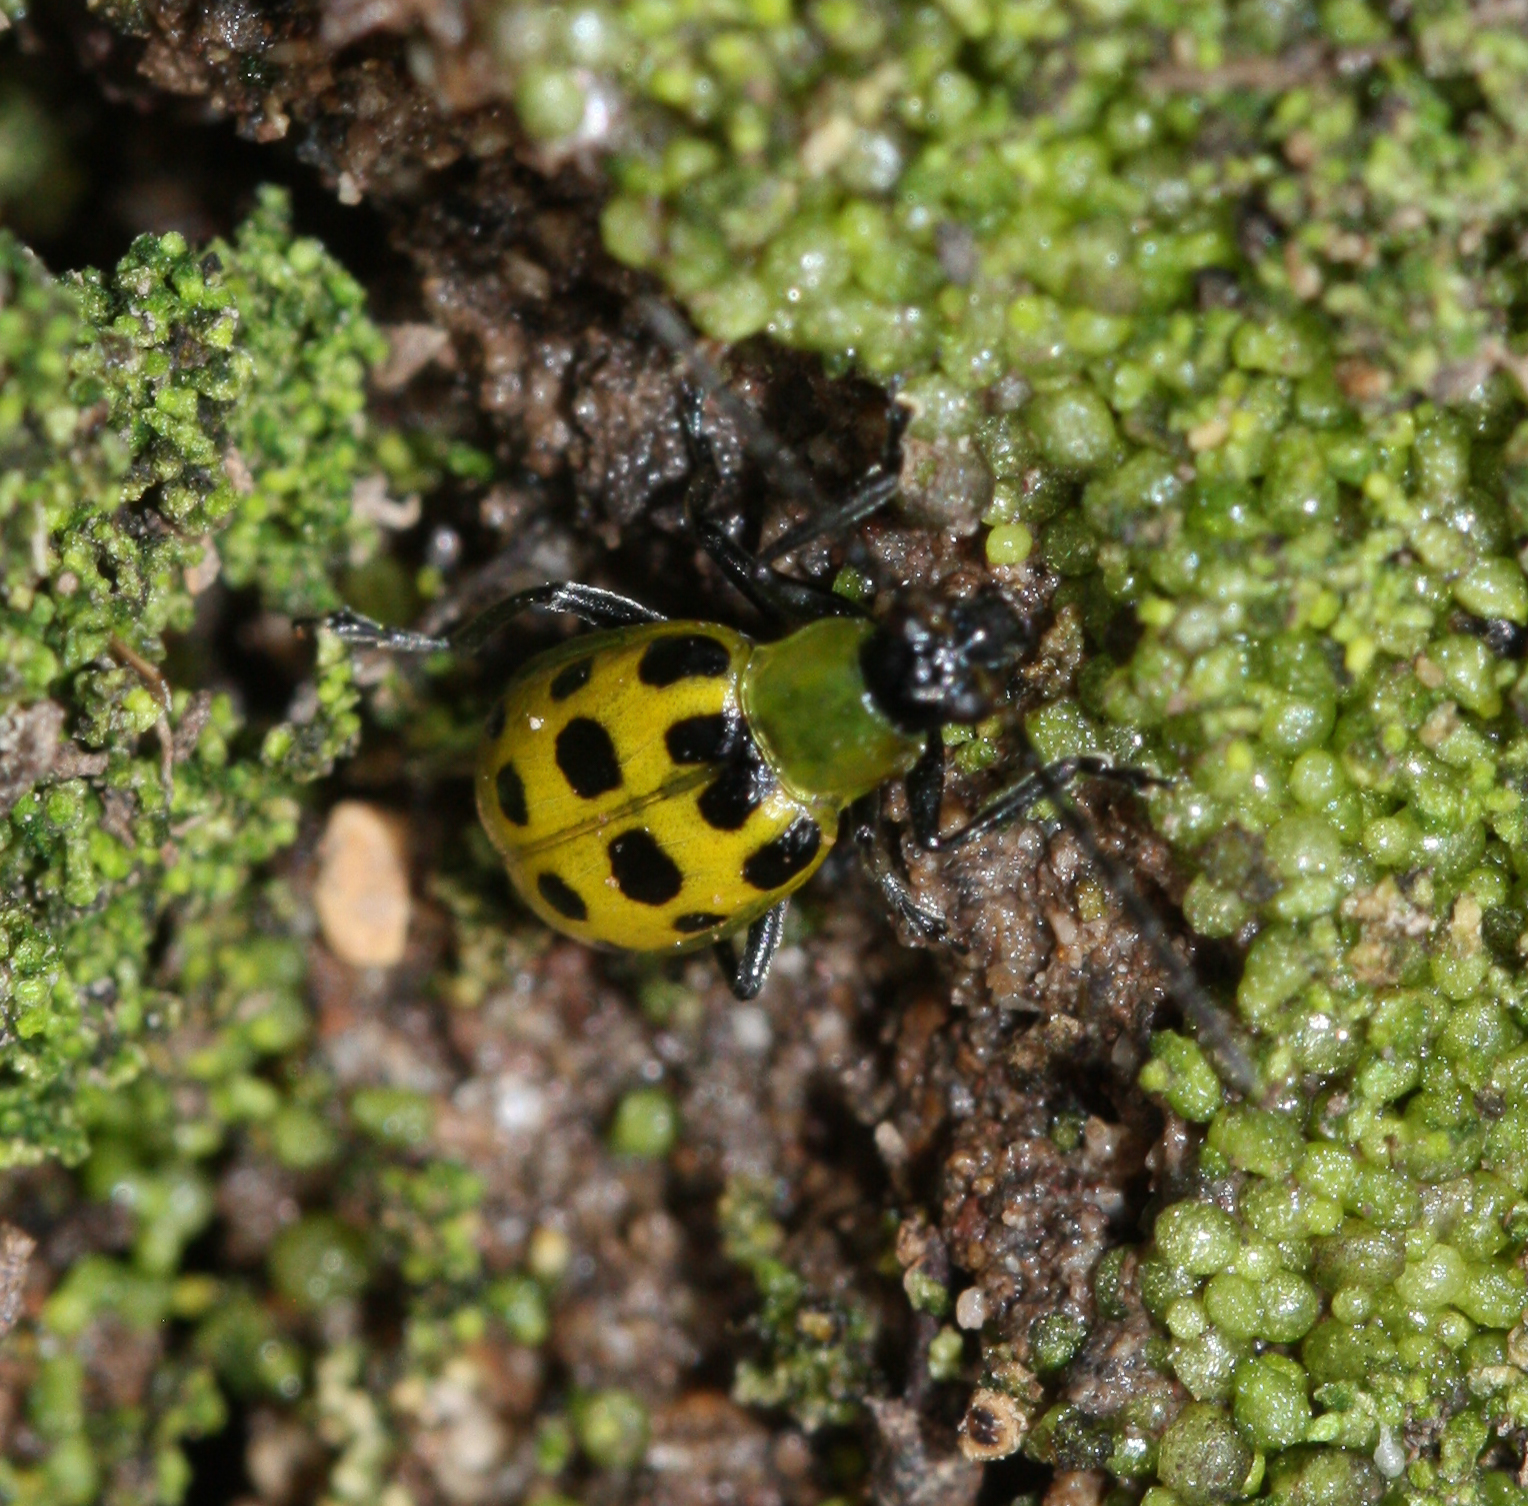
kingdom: Animalia
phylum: Arthropoda
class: Insecta
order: Coleoptera
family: Chrysomelidae
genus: Diabrotica
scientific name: Diabrotica undecimpunctata
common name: Spotted cucumber beetle
